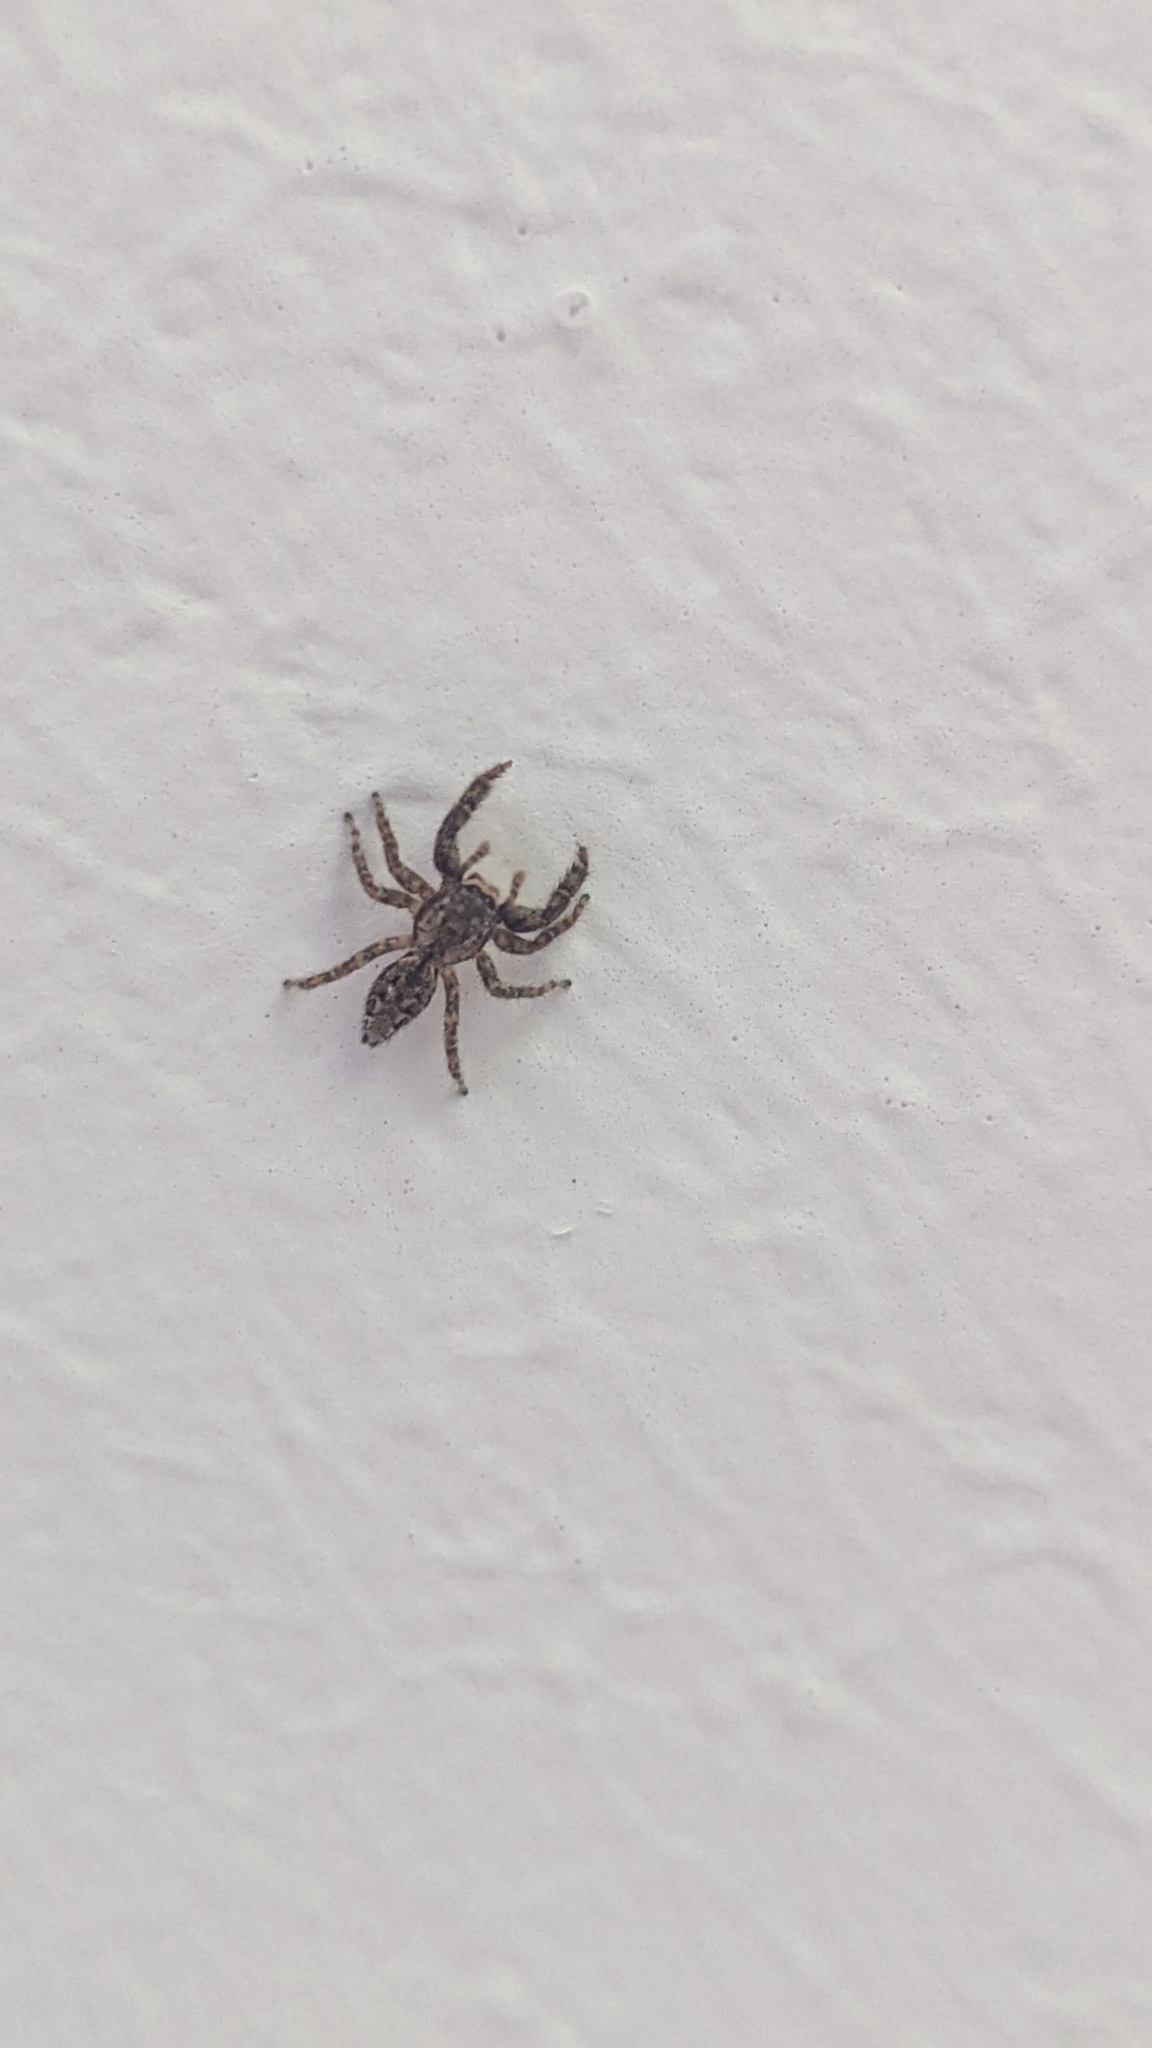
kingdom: Animalia
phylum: Arthropoda
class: Arachnida
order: Araneae
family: Salticidae
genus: Marpissa
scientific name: Marpissa muscosa
